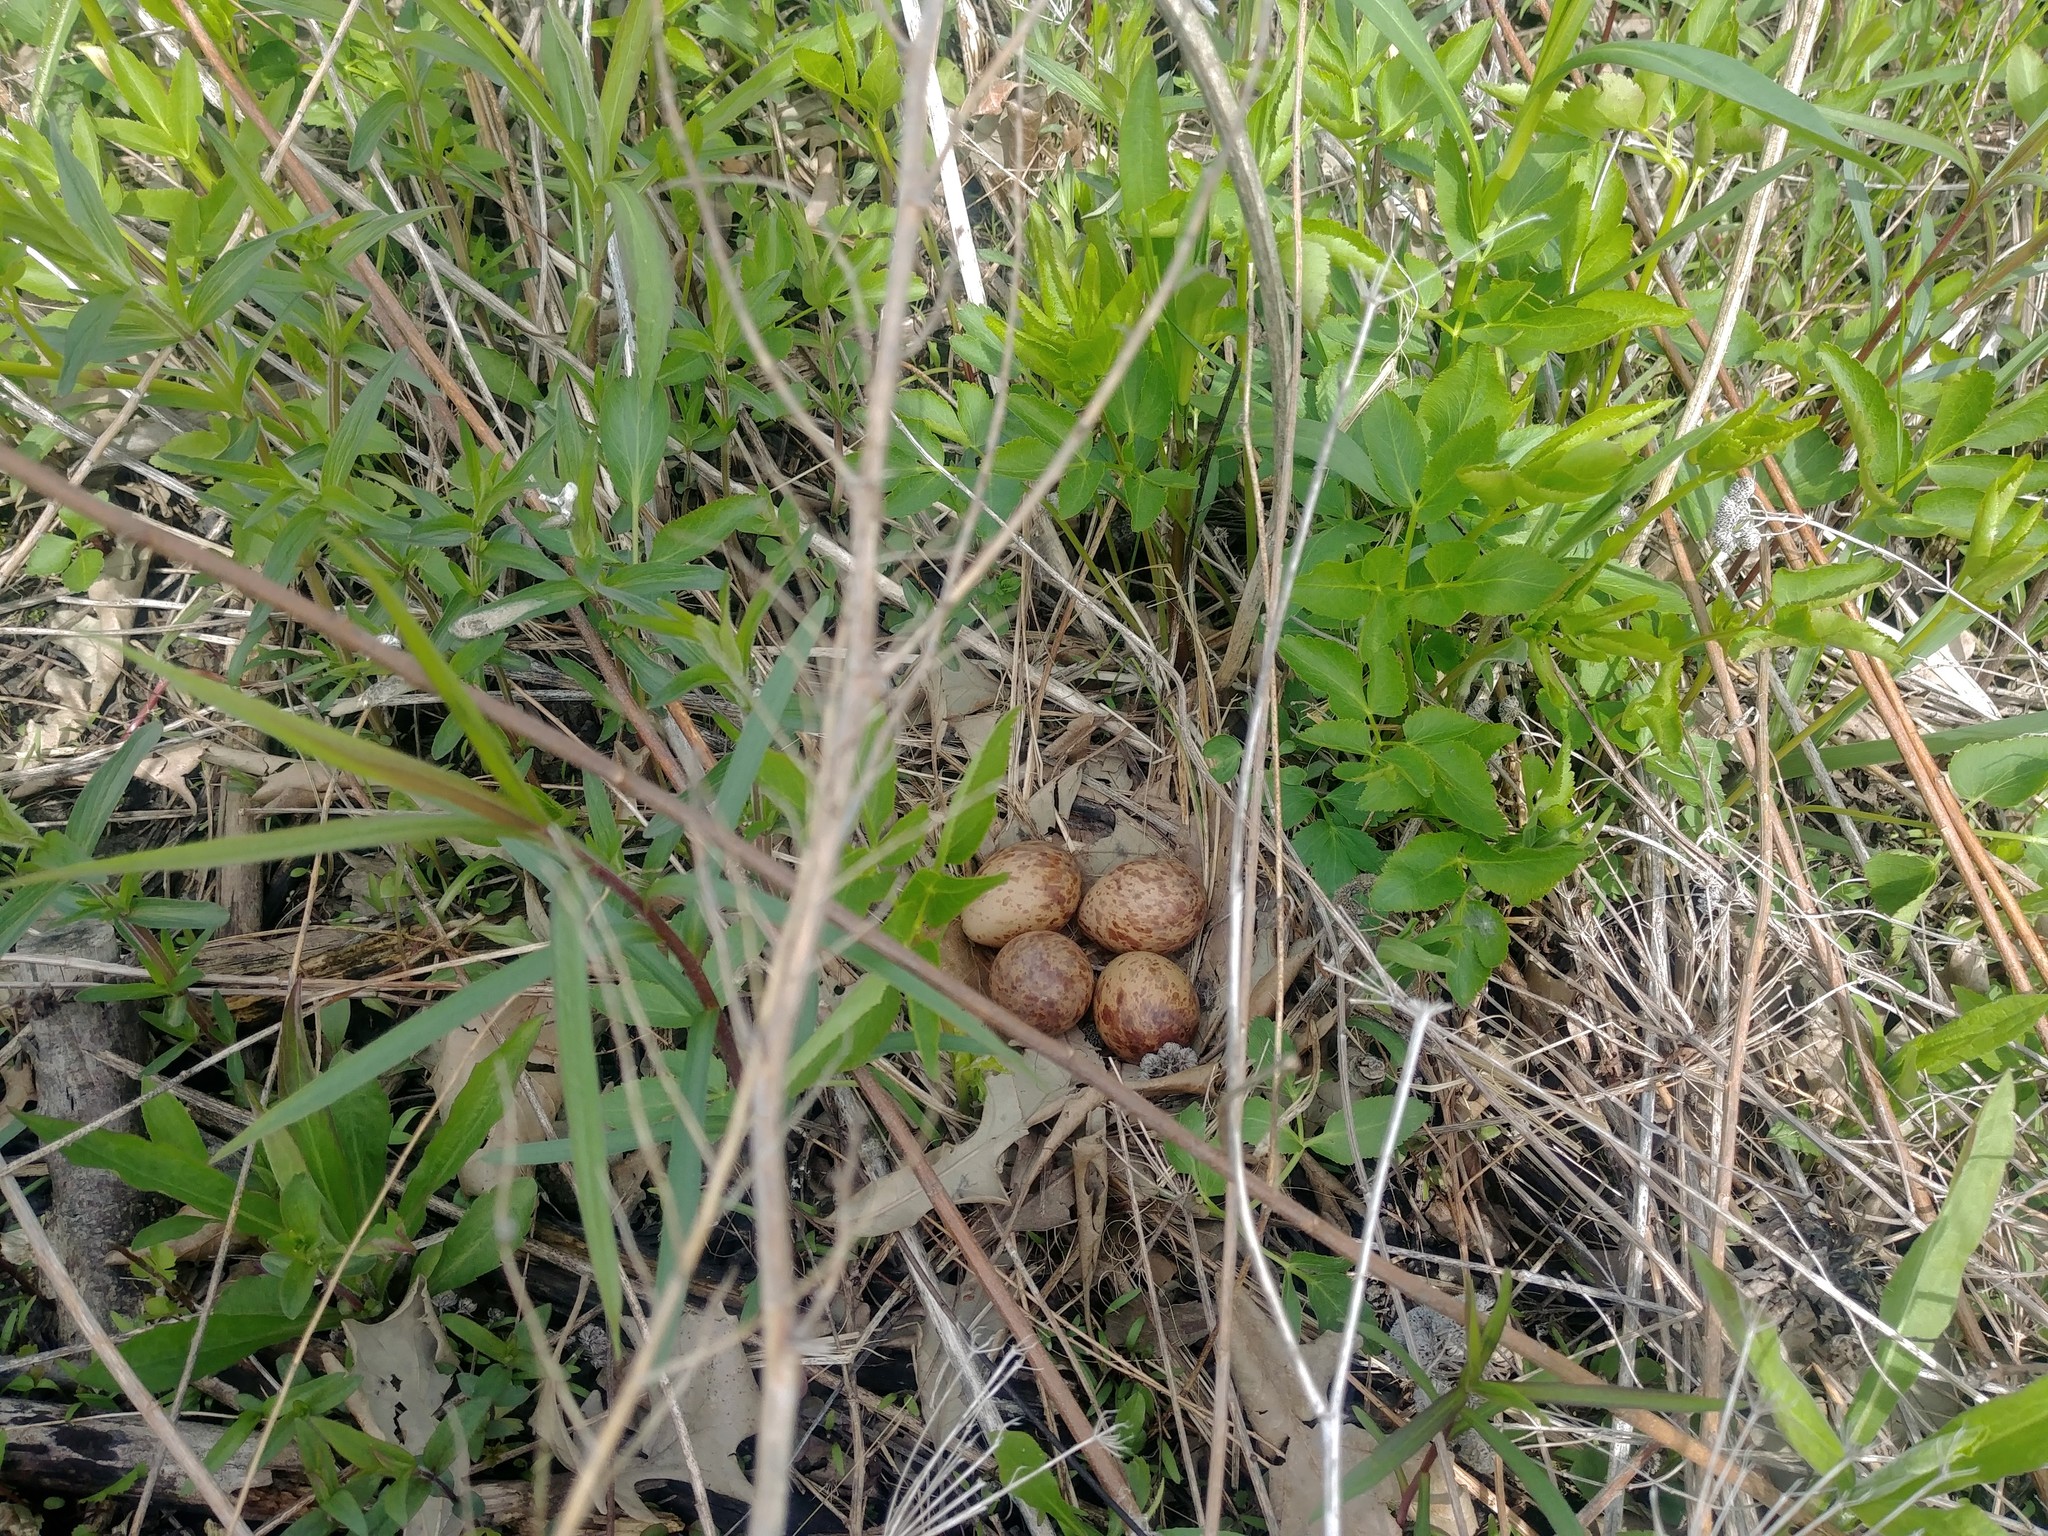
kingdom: Animalia
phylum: Chordata
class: Aves
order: Charadriiformes
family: Scolopacidae
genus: Scolopax
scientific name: Scolopax minor
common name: American woodcock
